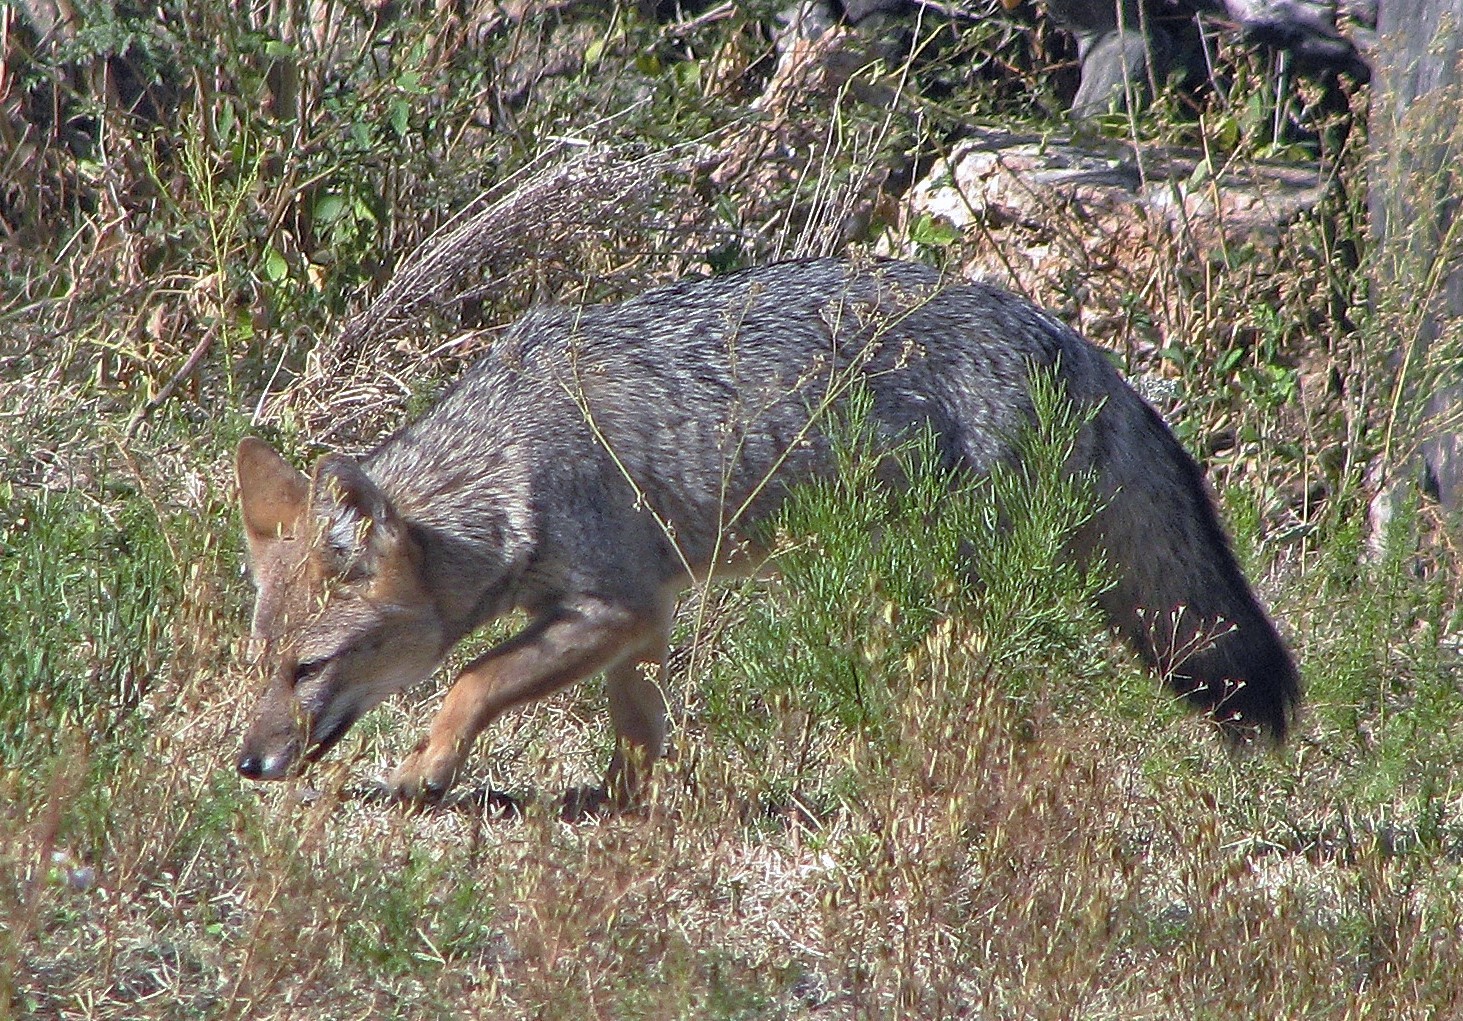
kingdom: Animalia
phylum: Chordata
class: Mammalia
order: Carnivora
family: Canidae
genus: Lycalopex
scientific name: Lycalopex gymnocercus
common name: Pampas fox
